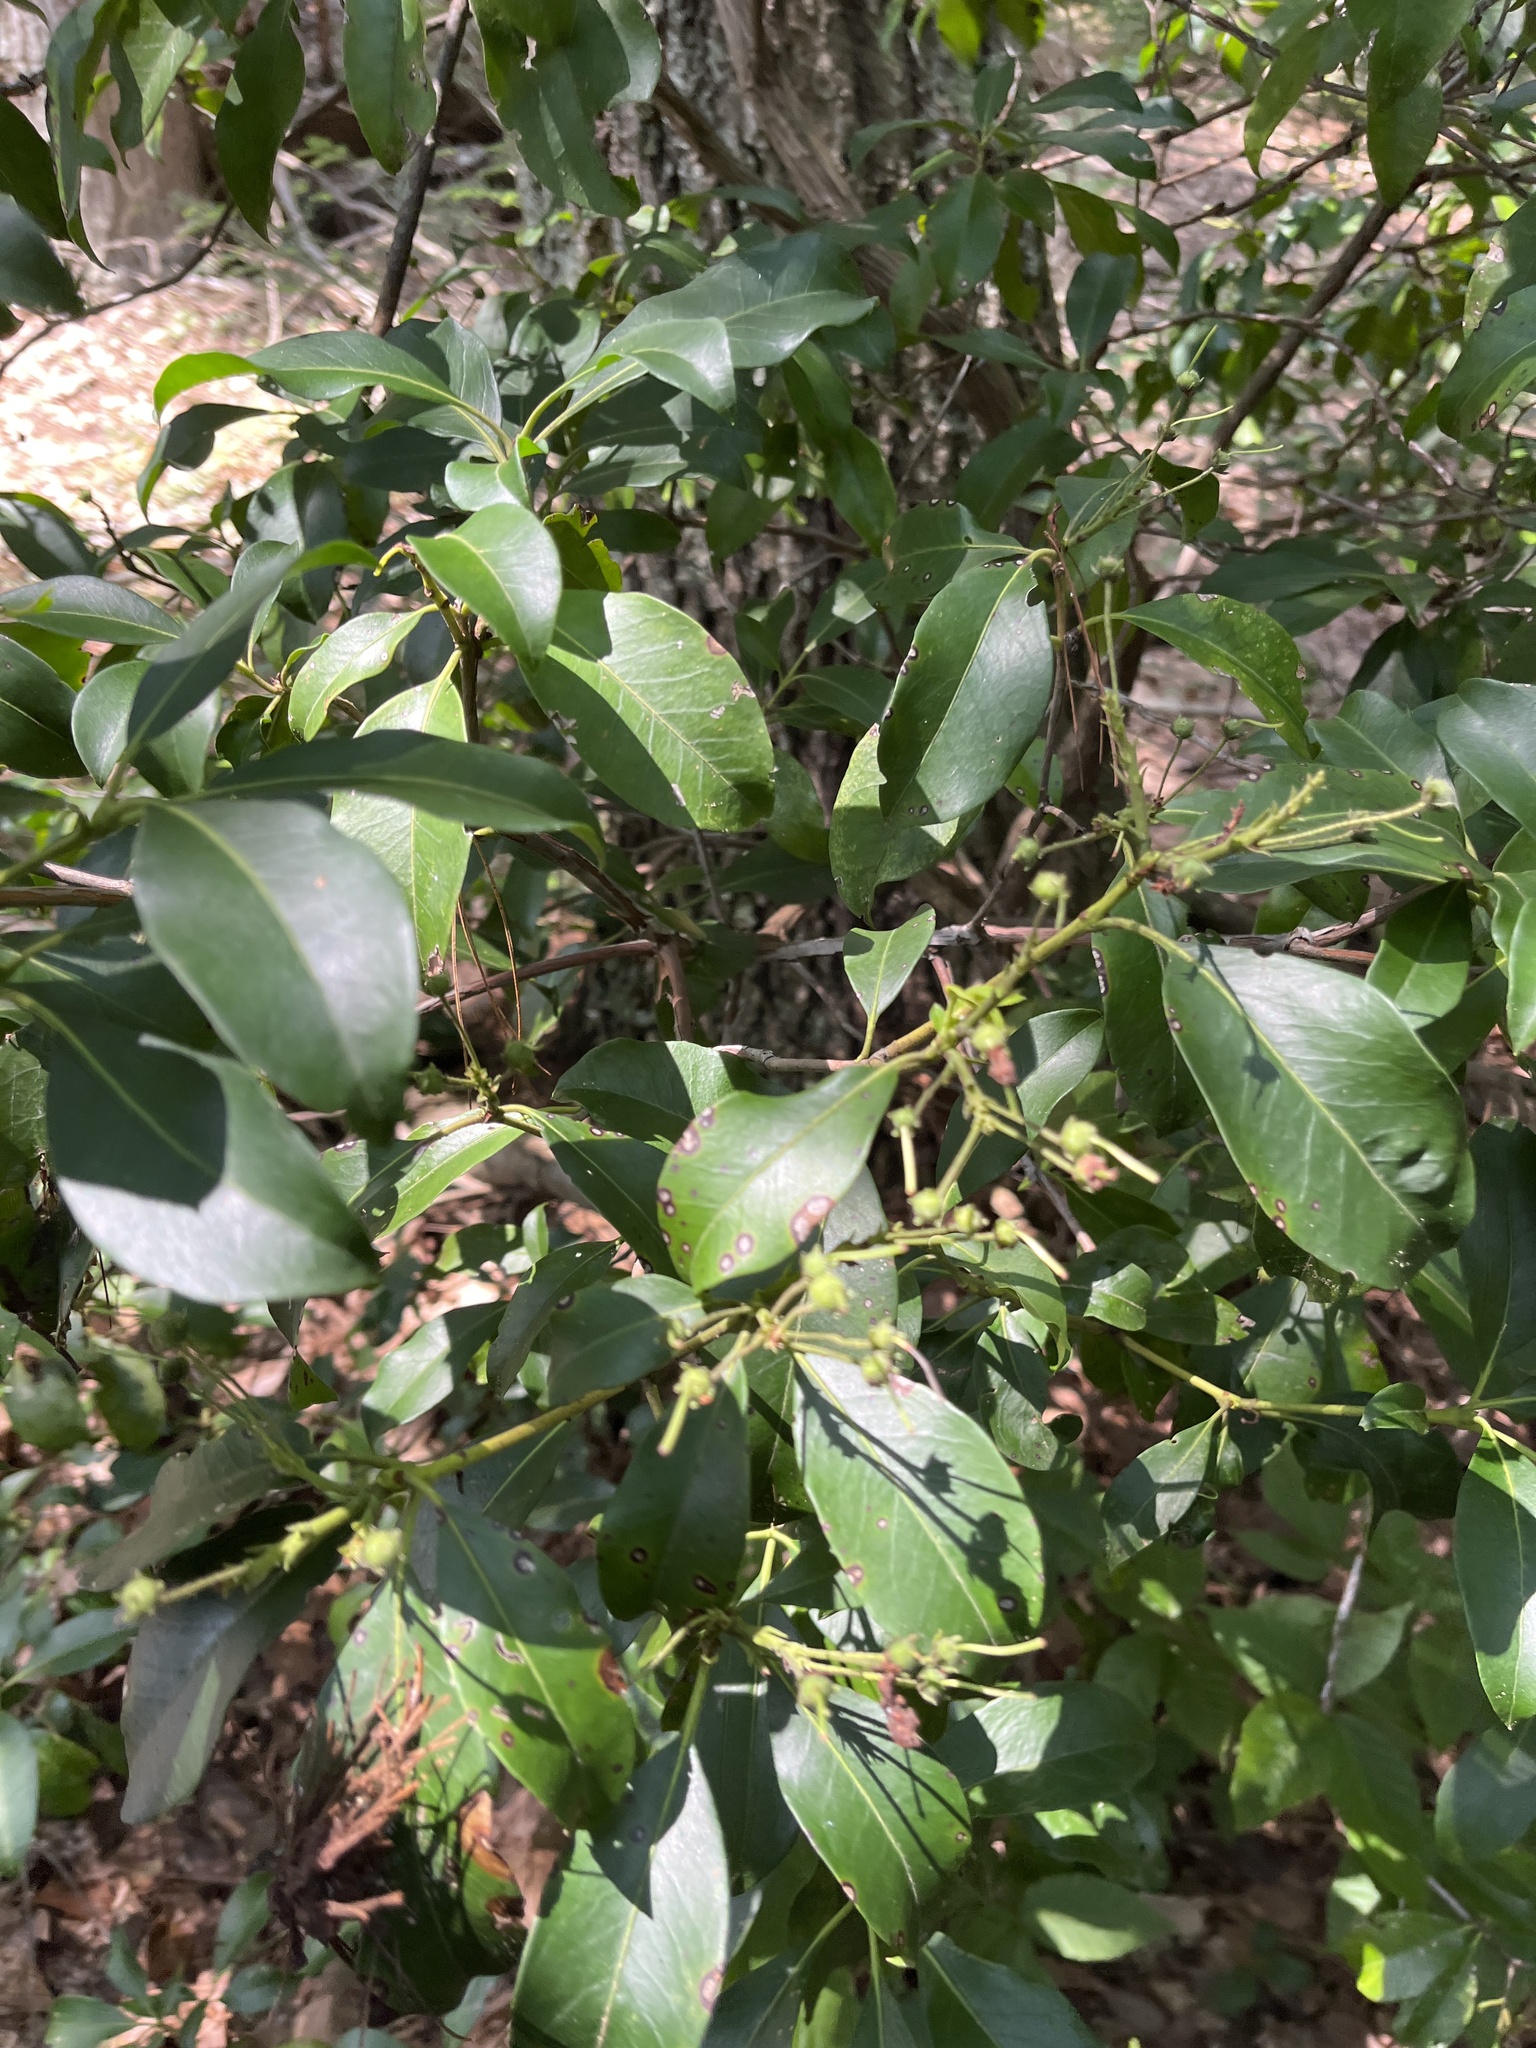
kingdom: Plantae
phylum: Tracheophyta
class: Magnoliopsida
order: Ericales
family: Ericaceae
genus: Kalmia
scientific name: Kalmia latifolia
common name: Mountain-laurel
